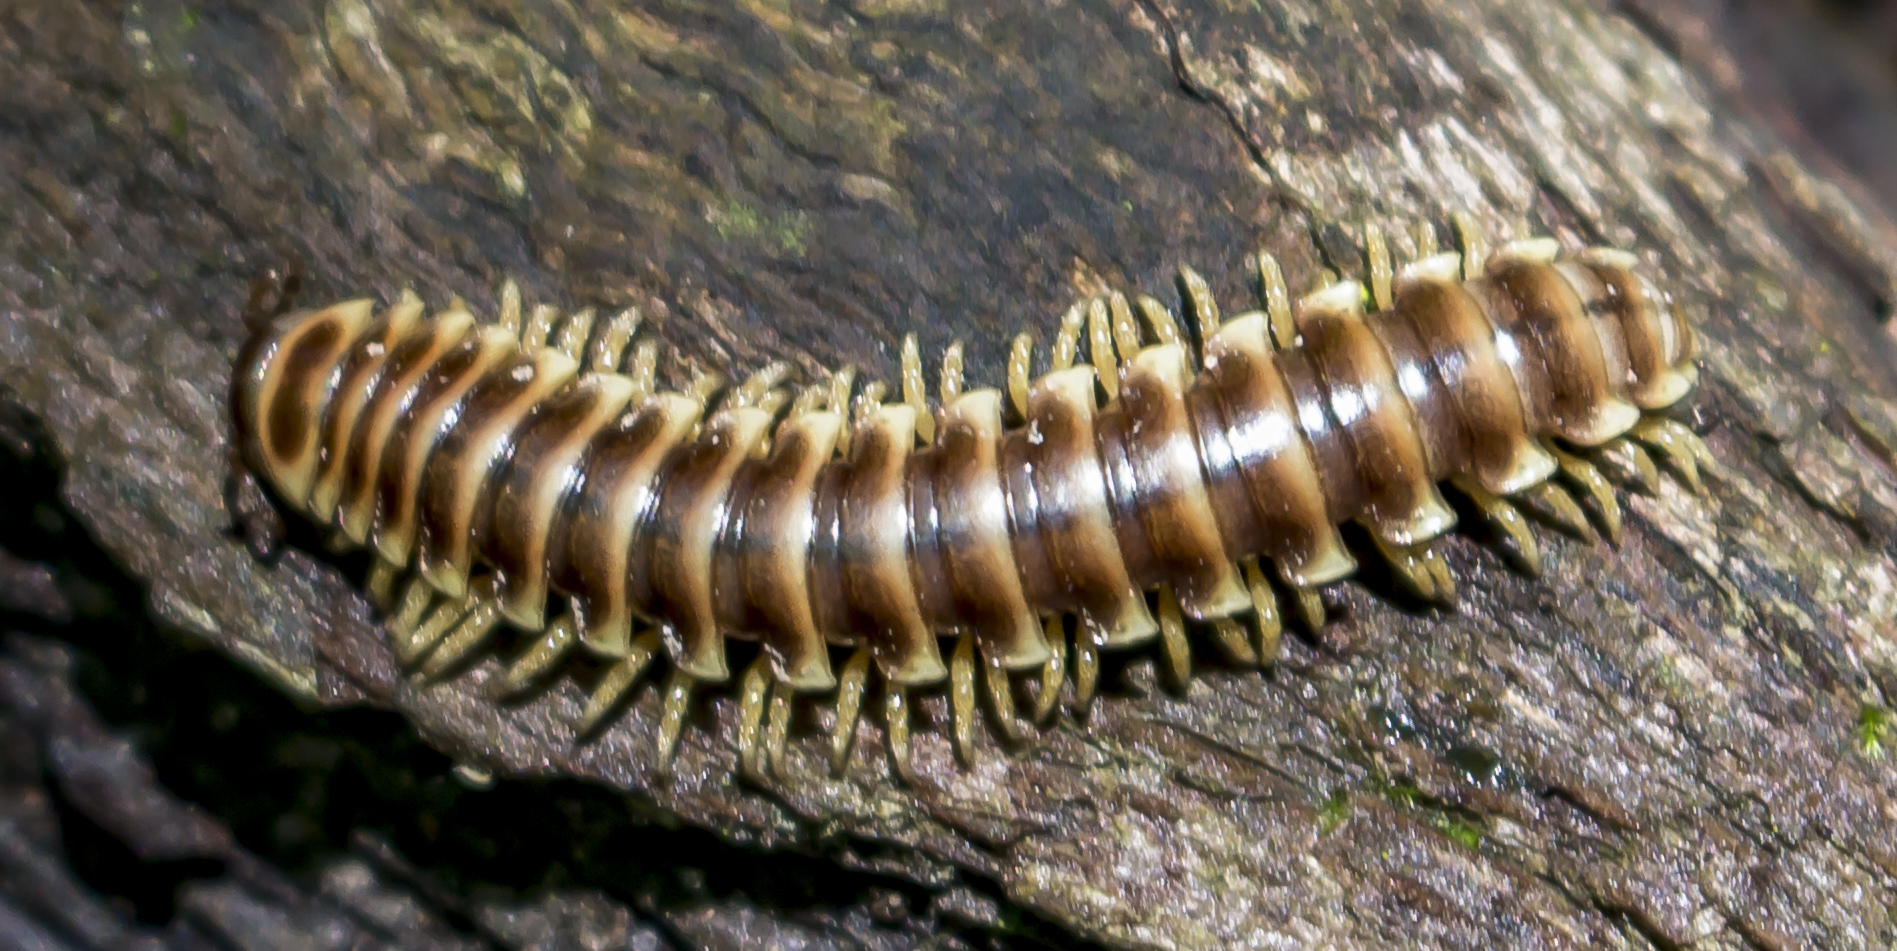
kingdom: Animalia
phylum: Arthropoda
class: Diplopoda
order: Polydesmida
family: Xystodesmidae
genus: Pleuroloma
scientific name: Pleuroloma flavipes
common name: Yellow-legged pleuroloma
